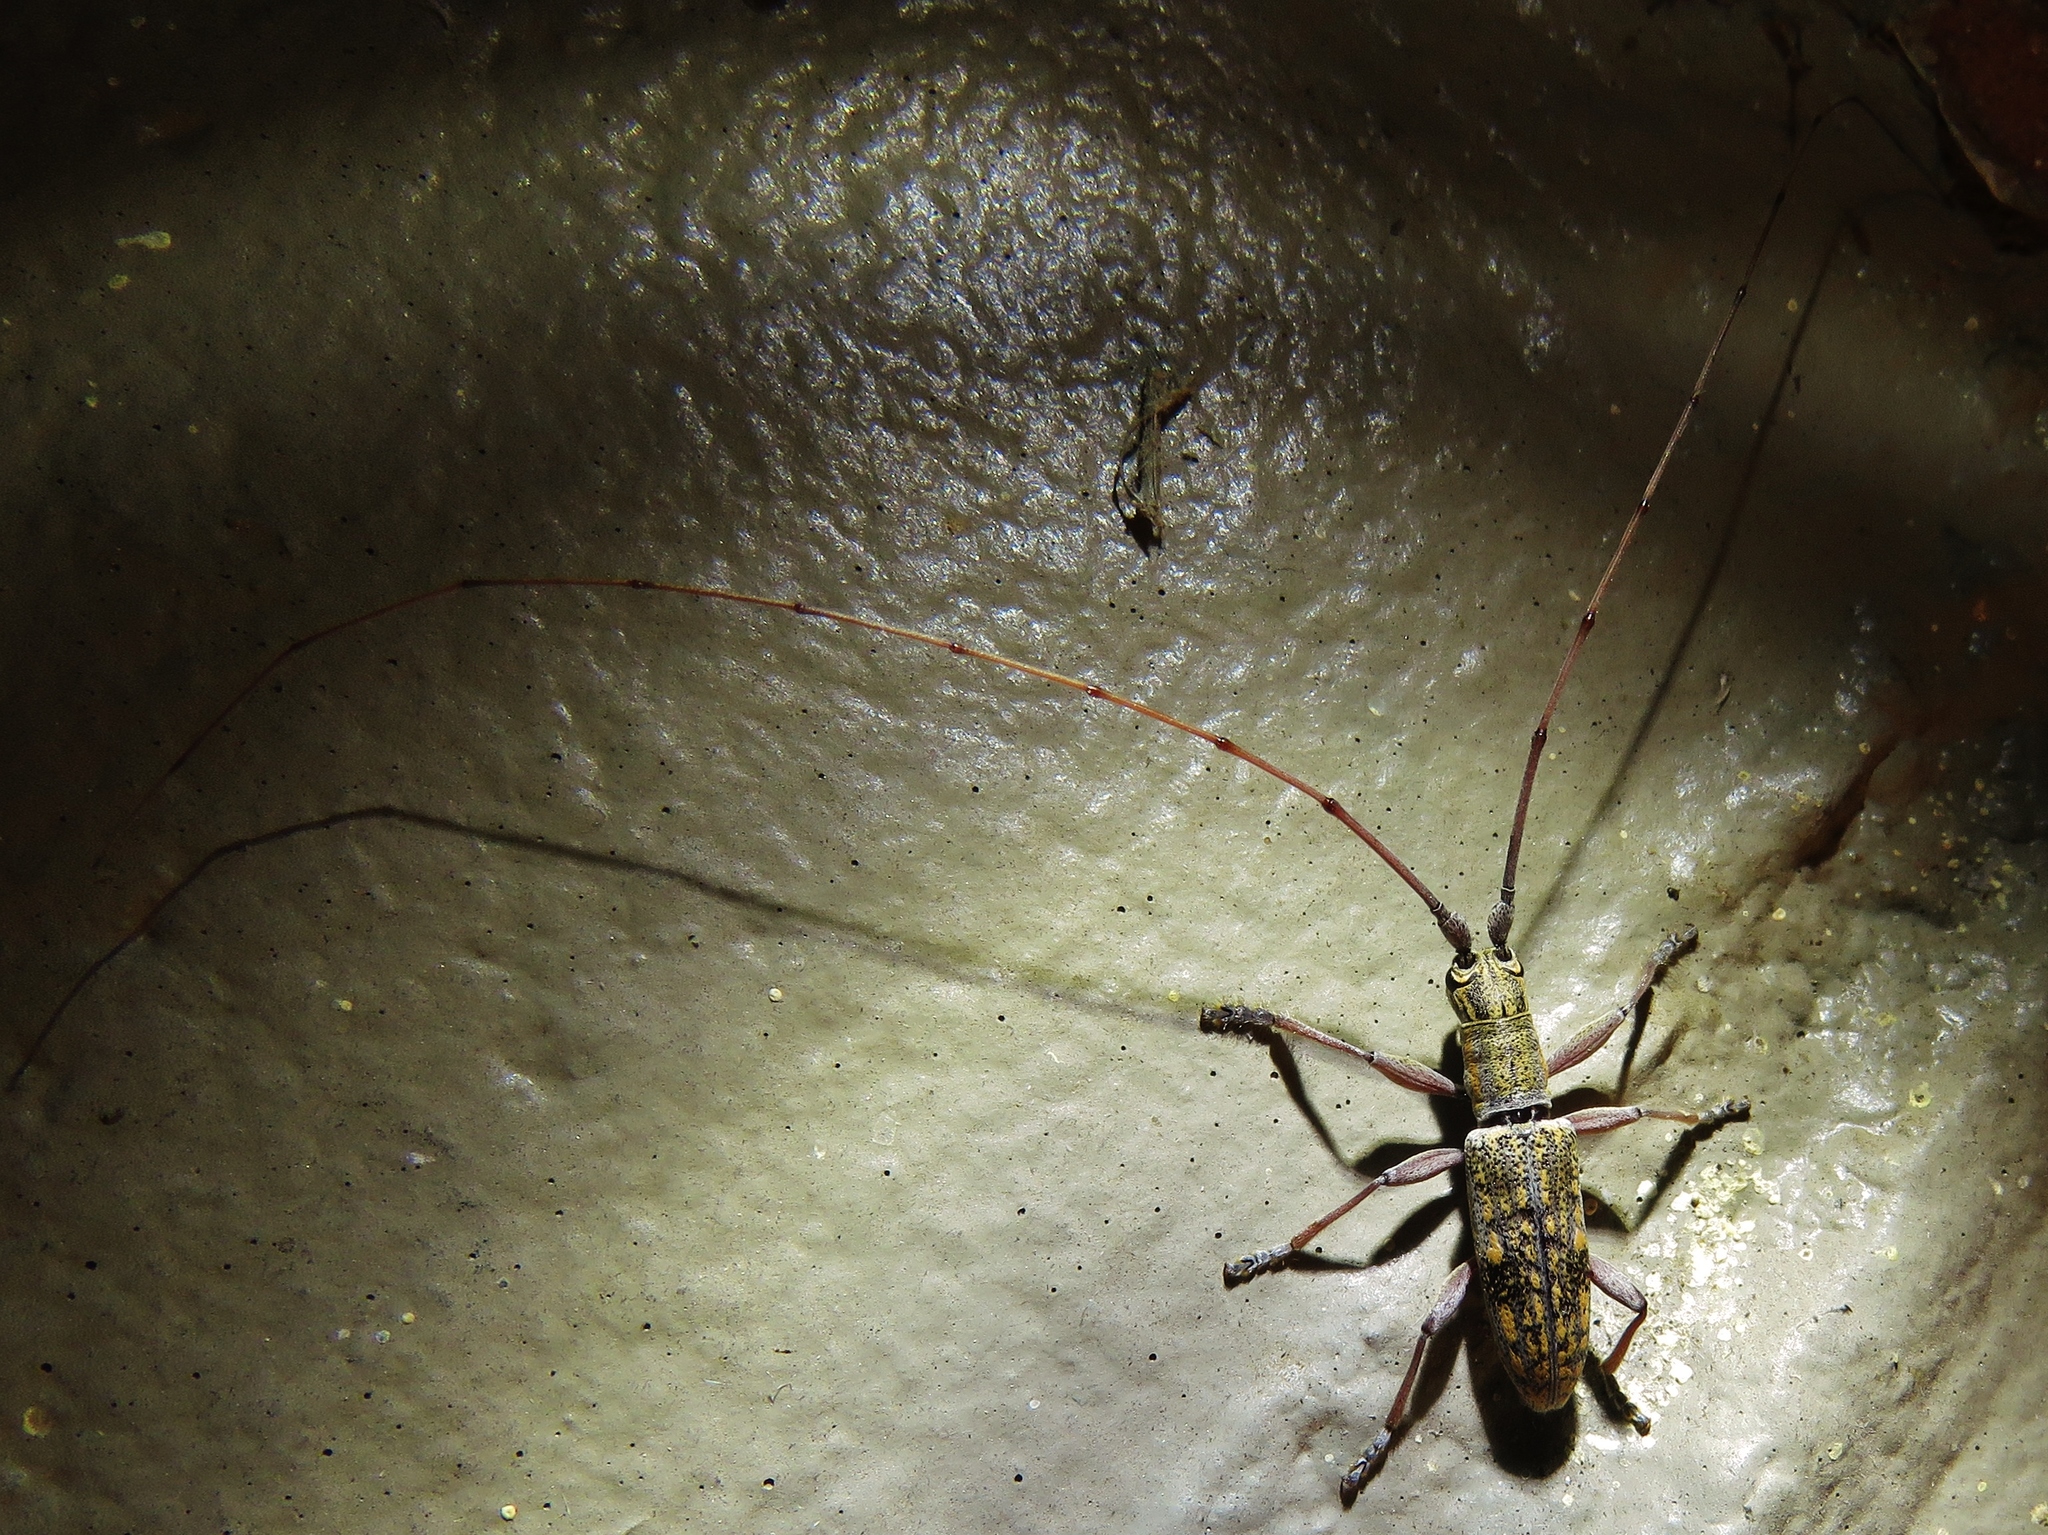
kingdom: Animalia
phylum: Arthropoda
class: Insecta
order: Coleoptera
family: Cerambycidae
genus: Dorcaschema
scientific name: Dorcaschema alternatum
